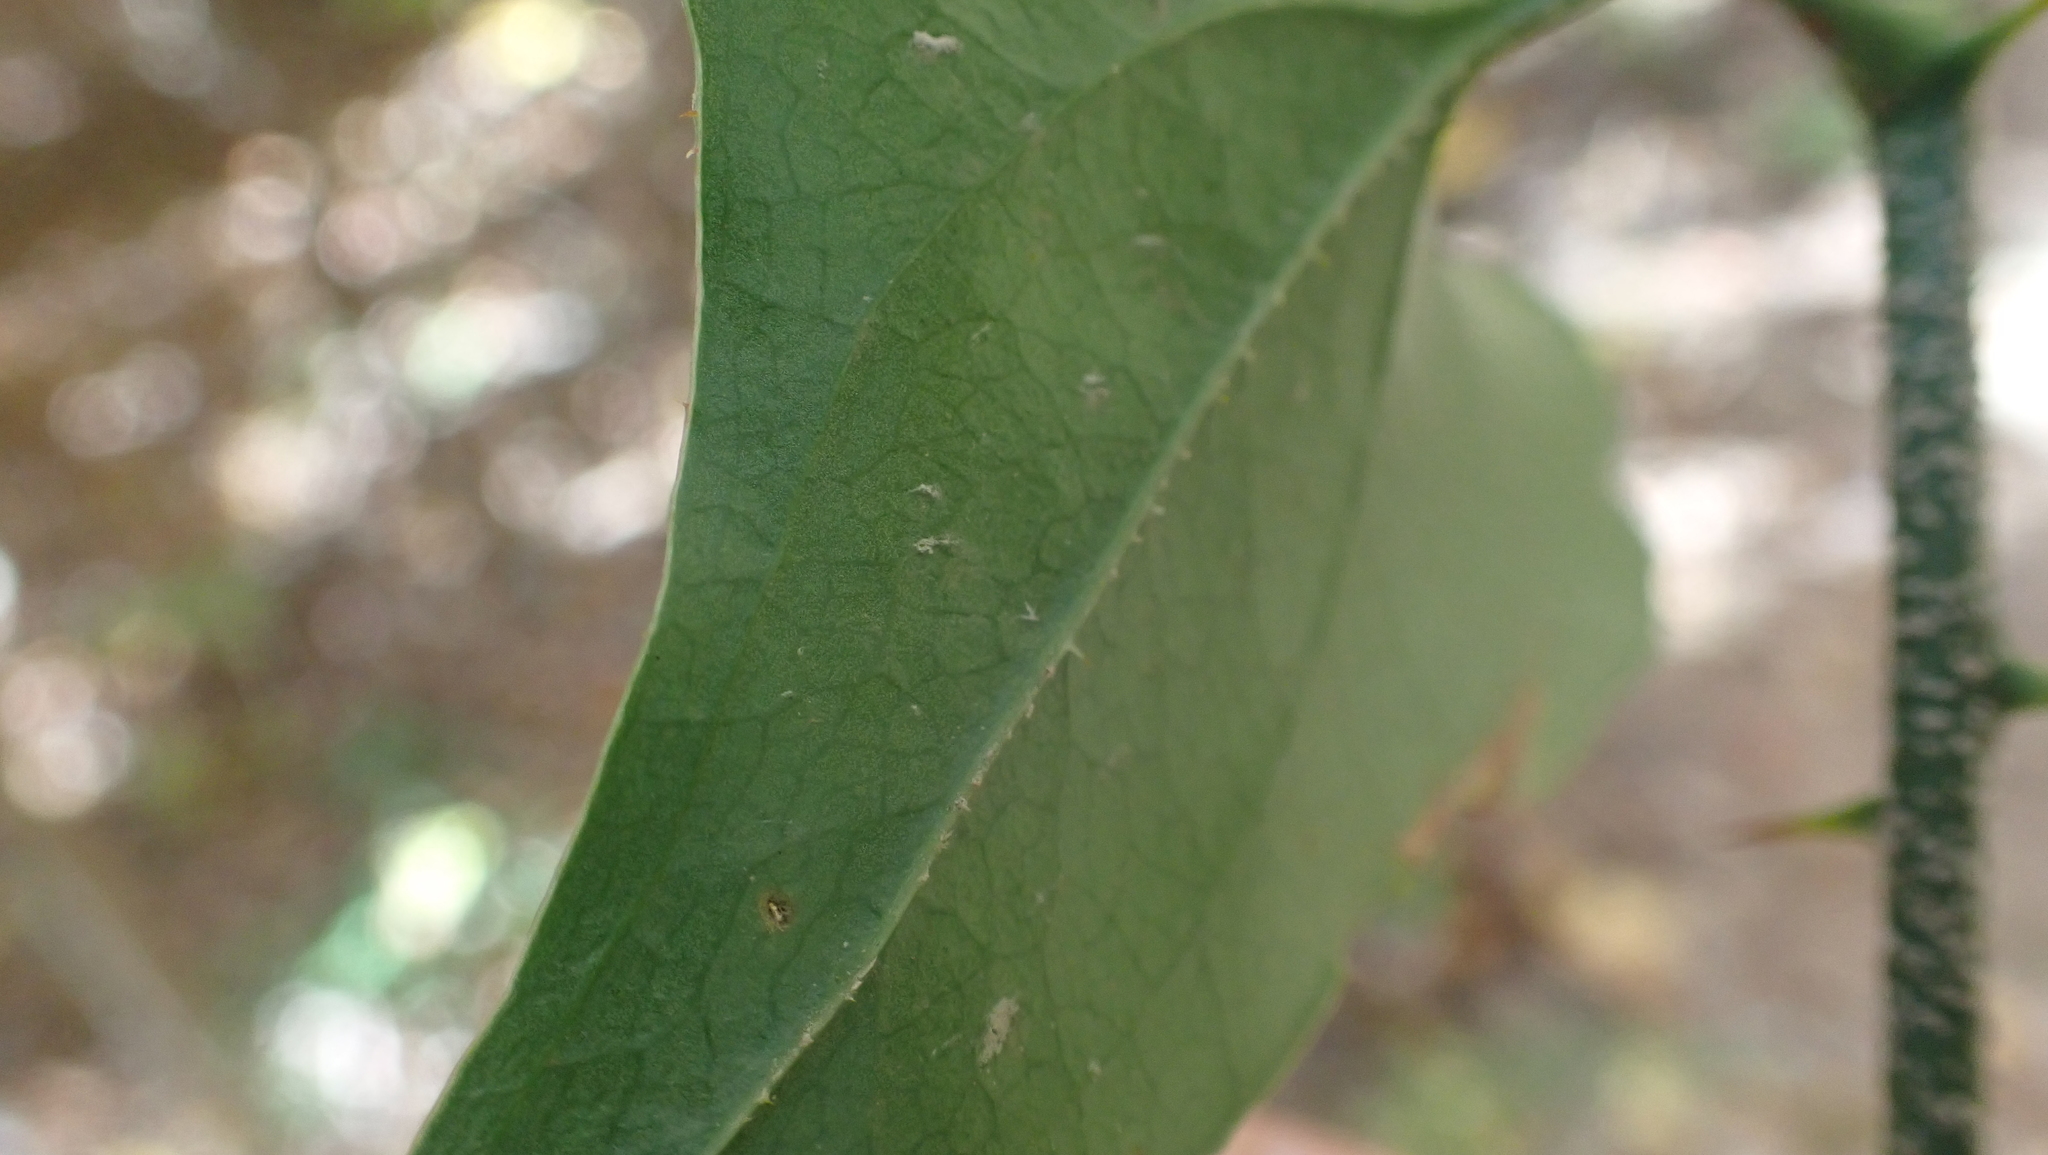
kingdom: Plantae
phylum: Tracheophyta
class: Liliopsida
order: Liliales
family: Smilacaceae
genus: Smilax
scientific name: Smilax bona-nox
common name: Catbrier
